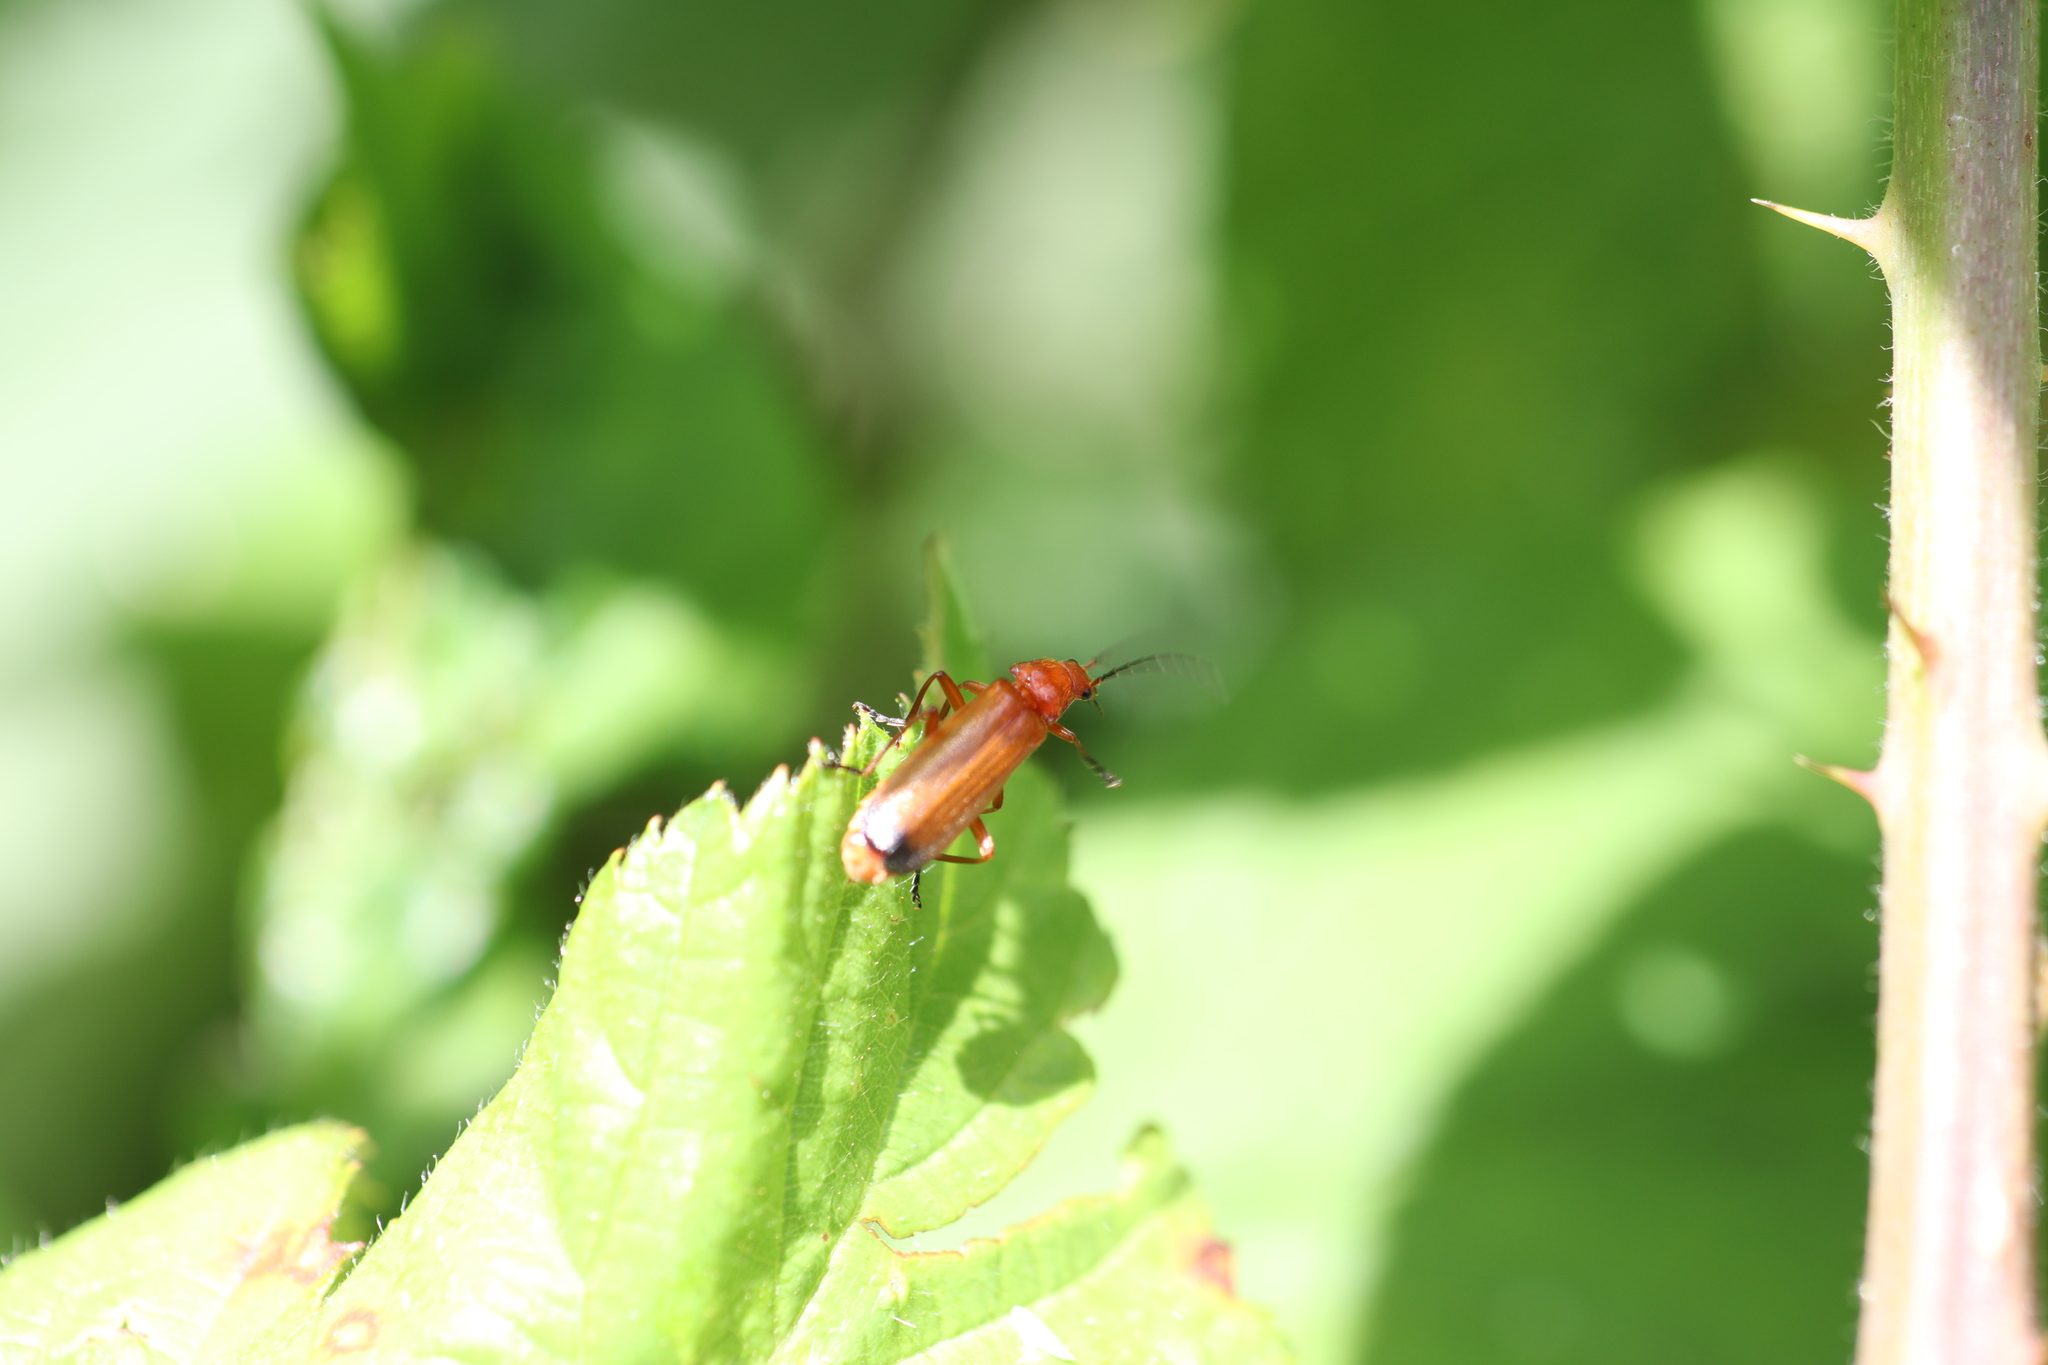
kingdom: Animalia
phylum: Arthropoda
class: Insecta
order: Coleoptera
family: Cantharidae
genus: Rhagonycha
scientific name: Rhagonycha fulva
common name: Common red soldier beetle
